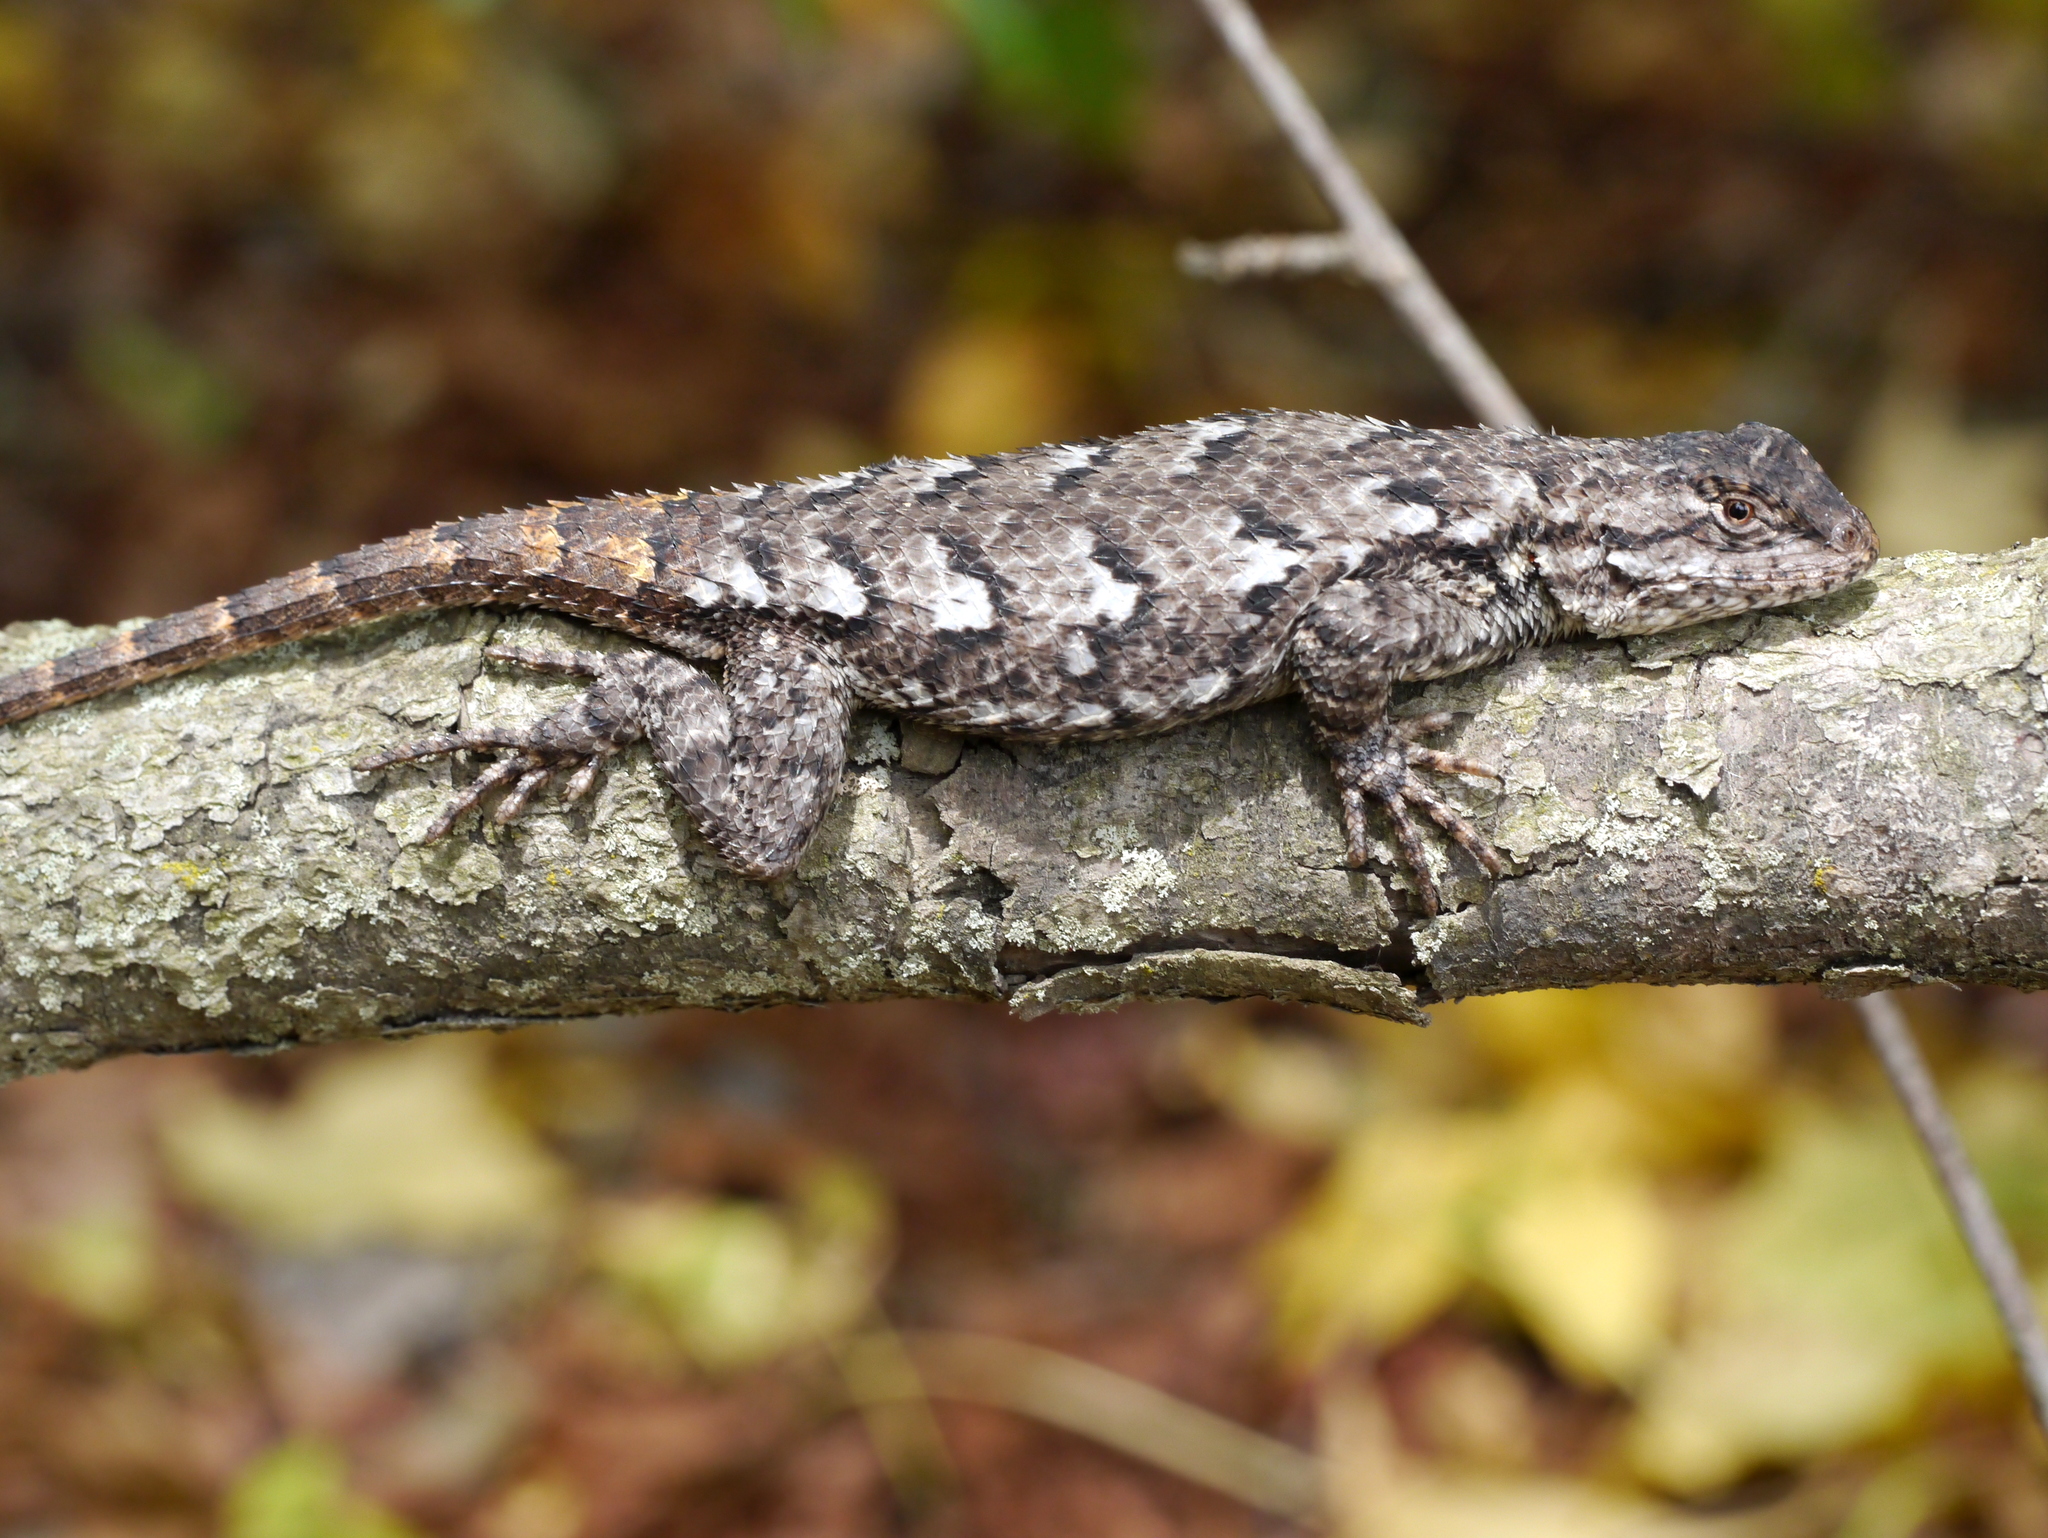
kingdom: Animalia
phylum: Chordata
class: Squamata
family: Phrynosomatidae
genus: Sceloporus
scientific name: Sceloporus undulatus
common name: Eastern fence lizard
